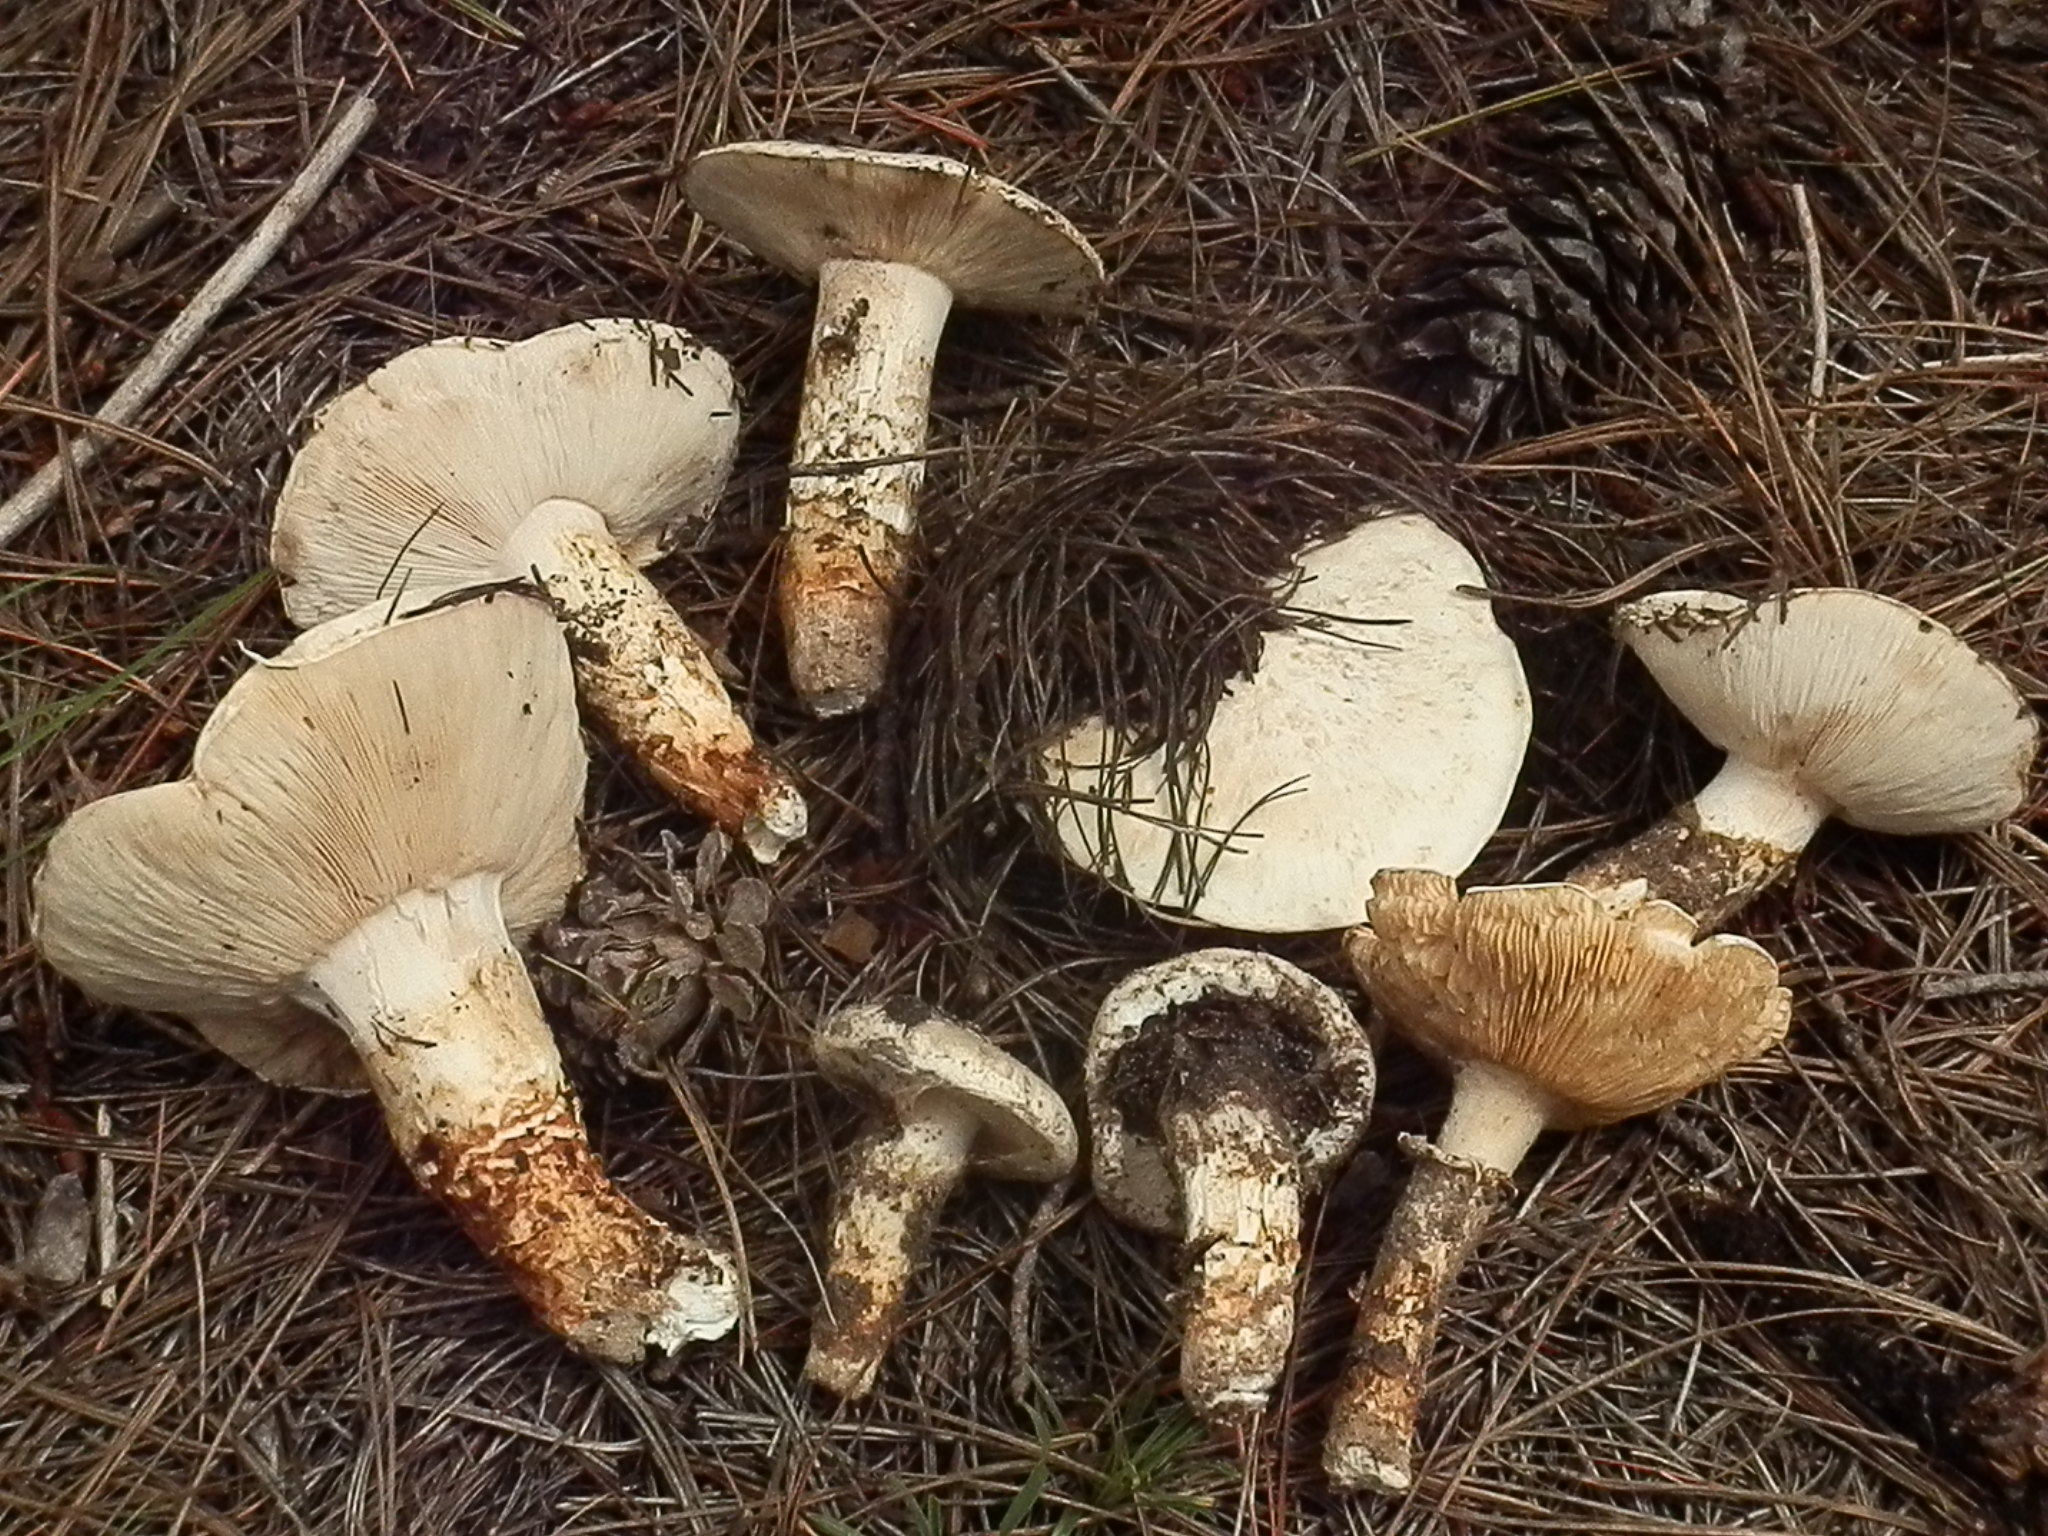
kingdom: Fungi
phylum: Basidiomycota
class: Agaricomycetes
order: Agaricales
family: Tricholomataceae
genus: Tricholoma
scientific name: Tricholoma mesoamericanum
